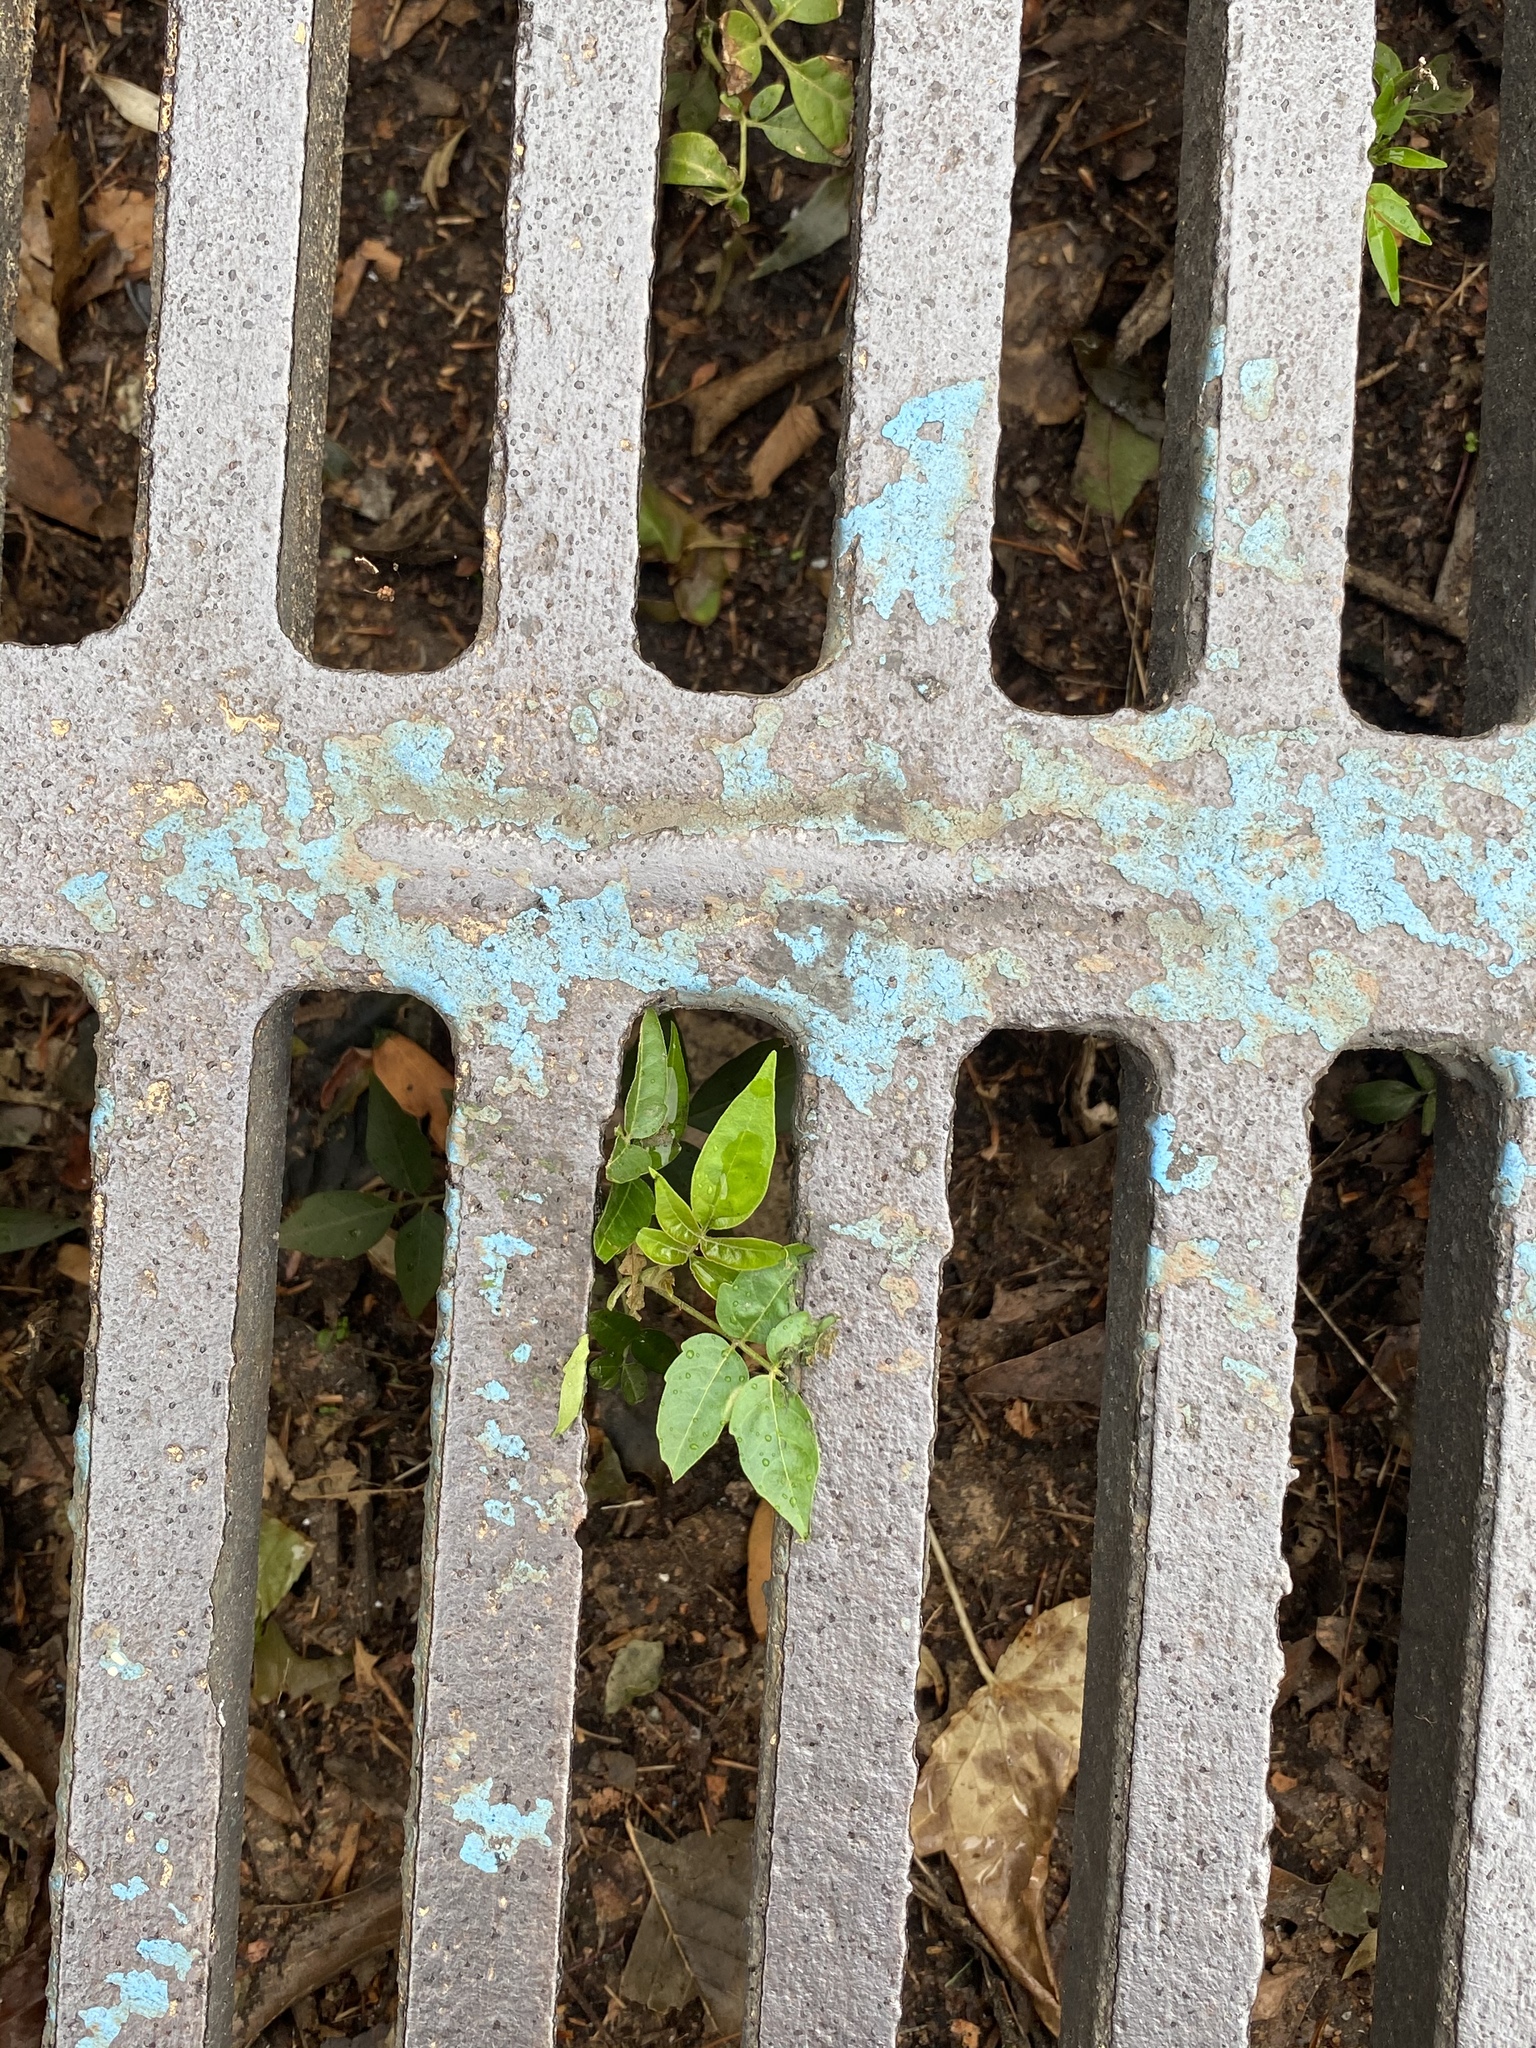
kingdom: Plantae
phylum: Tracheophyta
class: Magnoliopsida
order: Sapindales
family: Simaroubaceae
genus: Ailanthus
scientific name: Ailanthus altissima
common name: Tree-of-heaven
